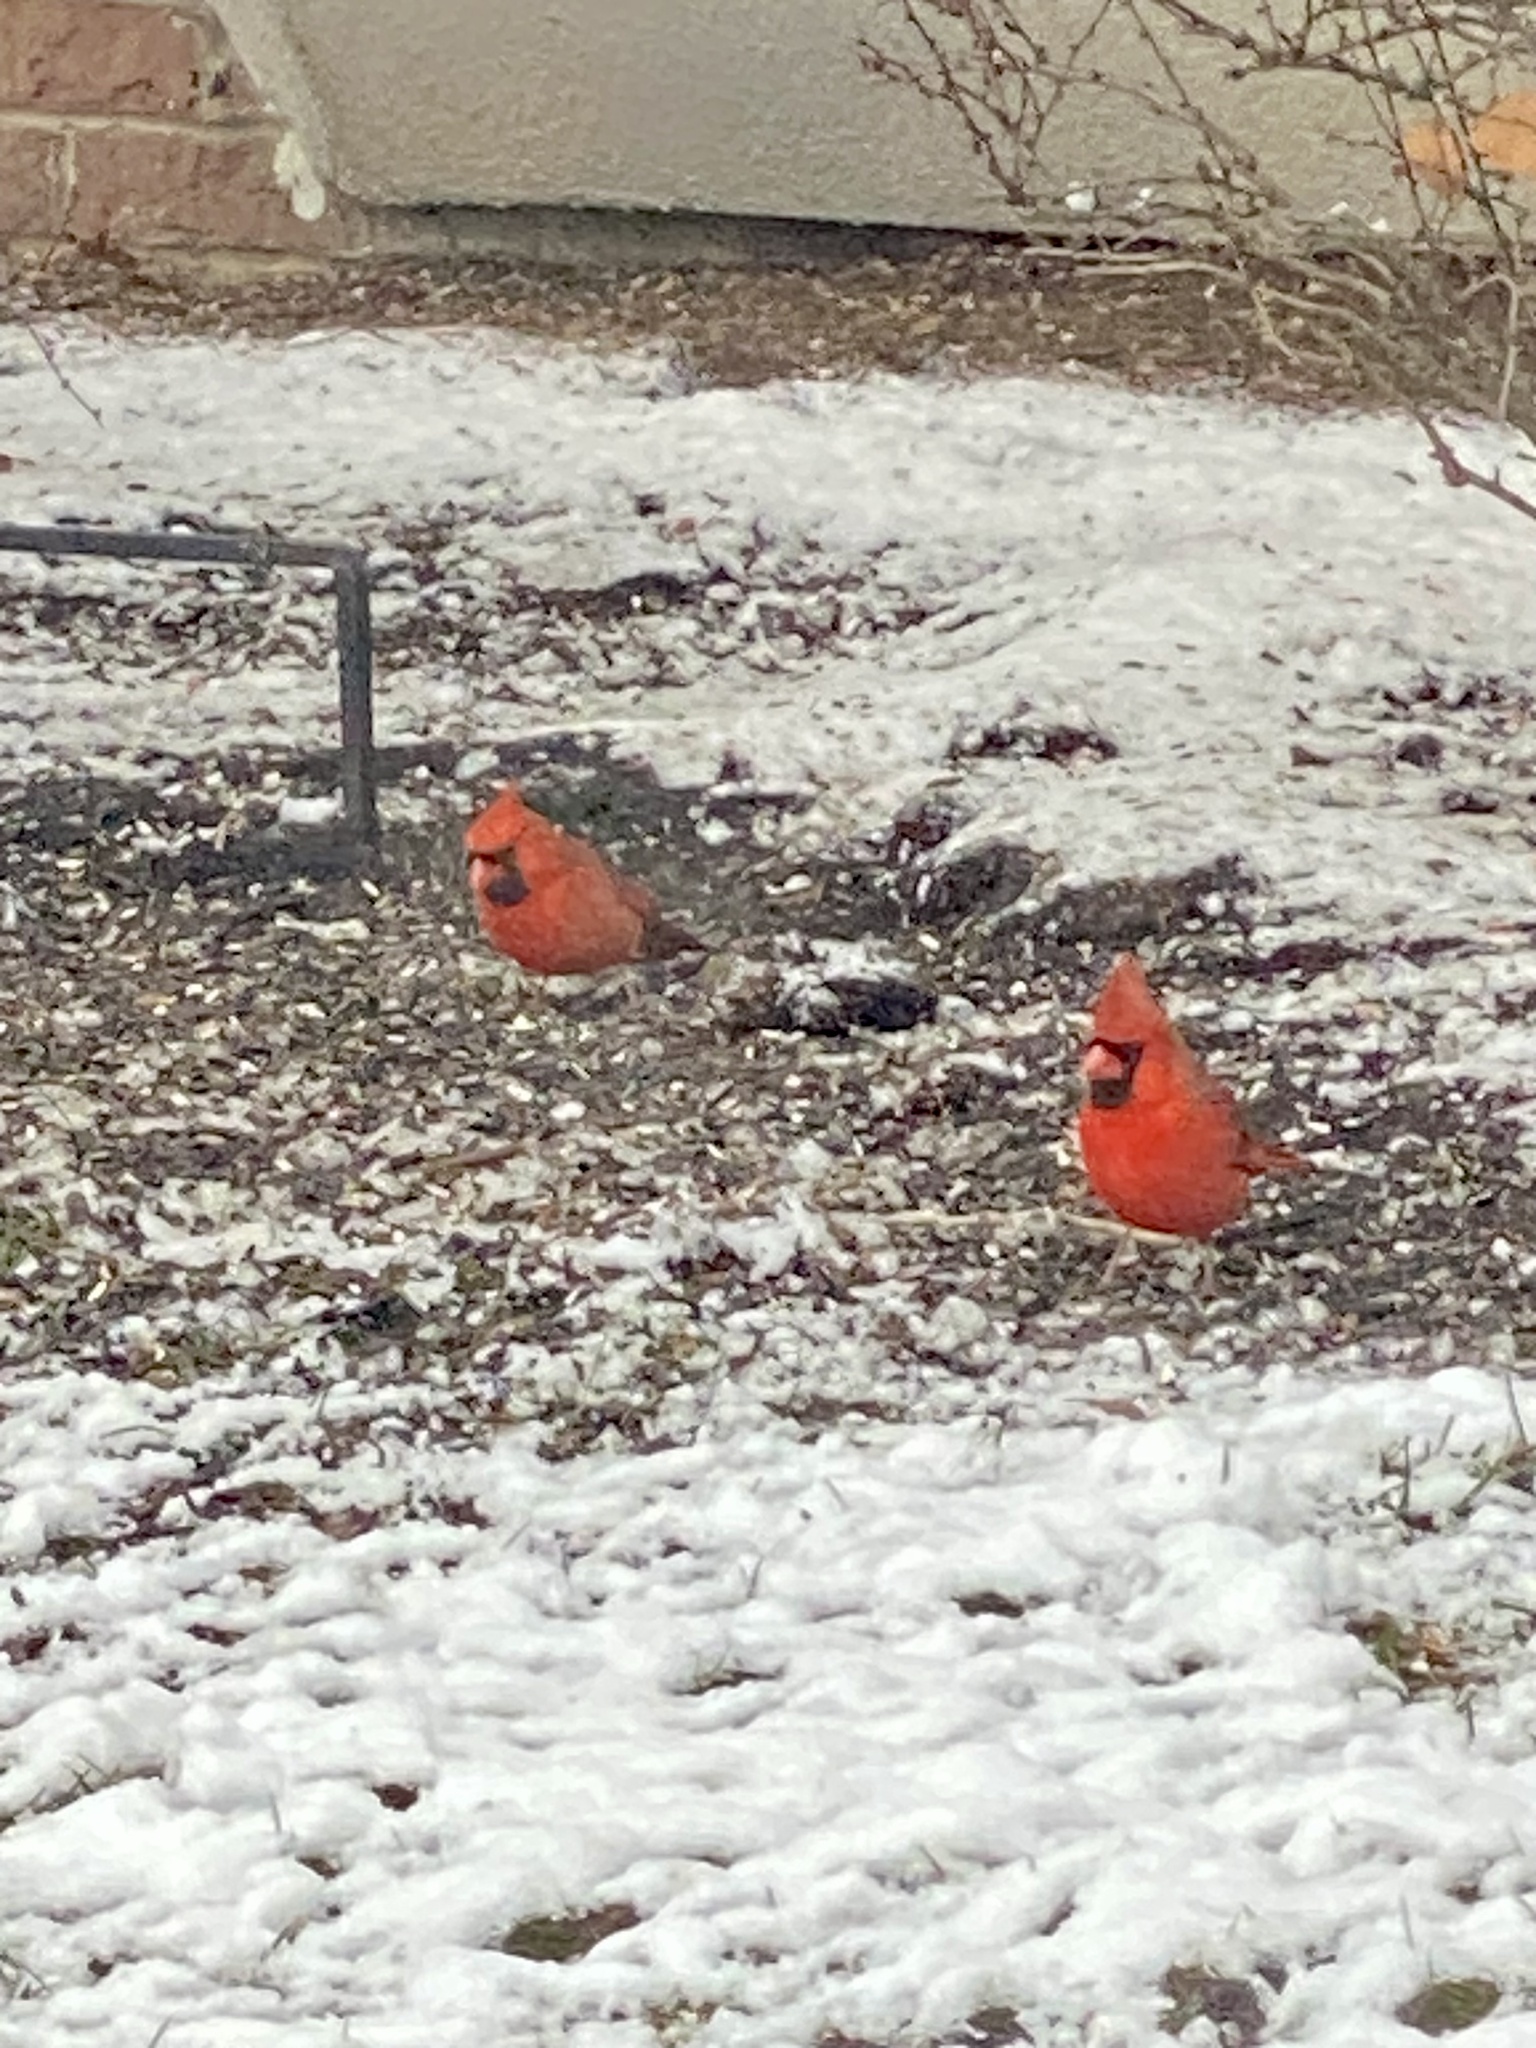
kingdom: Animalia
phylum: Chordata
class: Aves
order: Passeriformes
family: Cardinalidae
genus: Cardinalis
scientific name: Cardinalis cardinalis
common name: Northern cardinal
